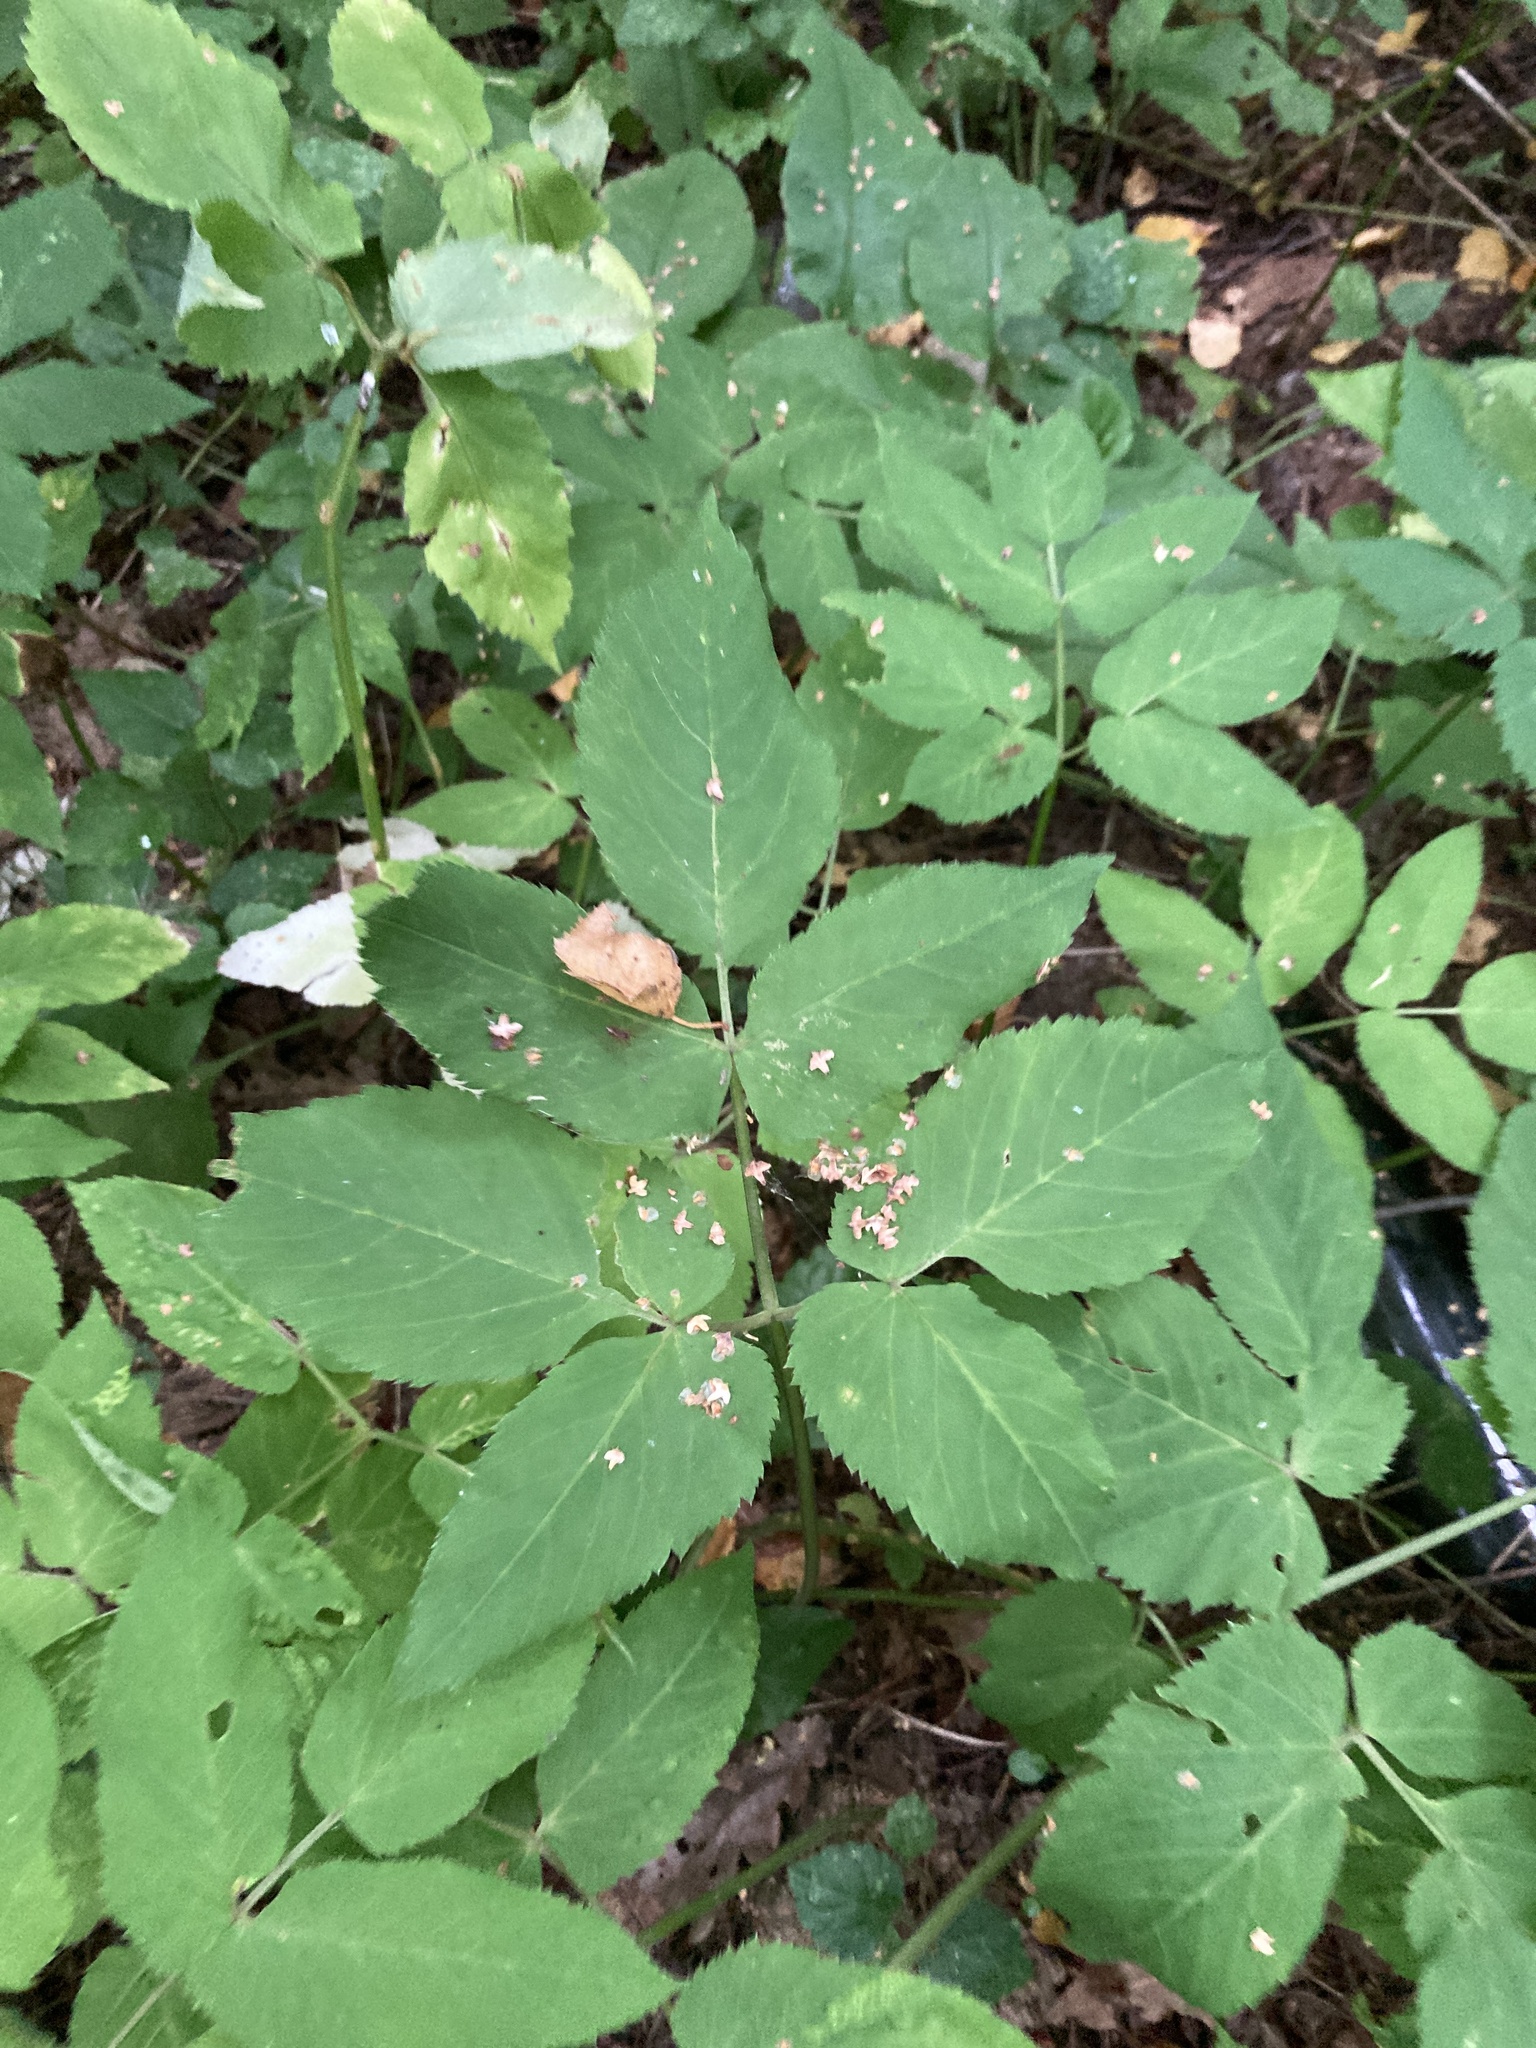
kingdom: Plantae
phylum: Tracheophyta
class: Magnoliopsida
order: Apiales
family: Apiaceae
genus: Aegopodium
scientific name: Aegopodium podagraria
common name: Ground-elder
